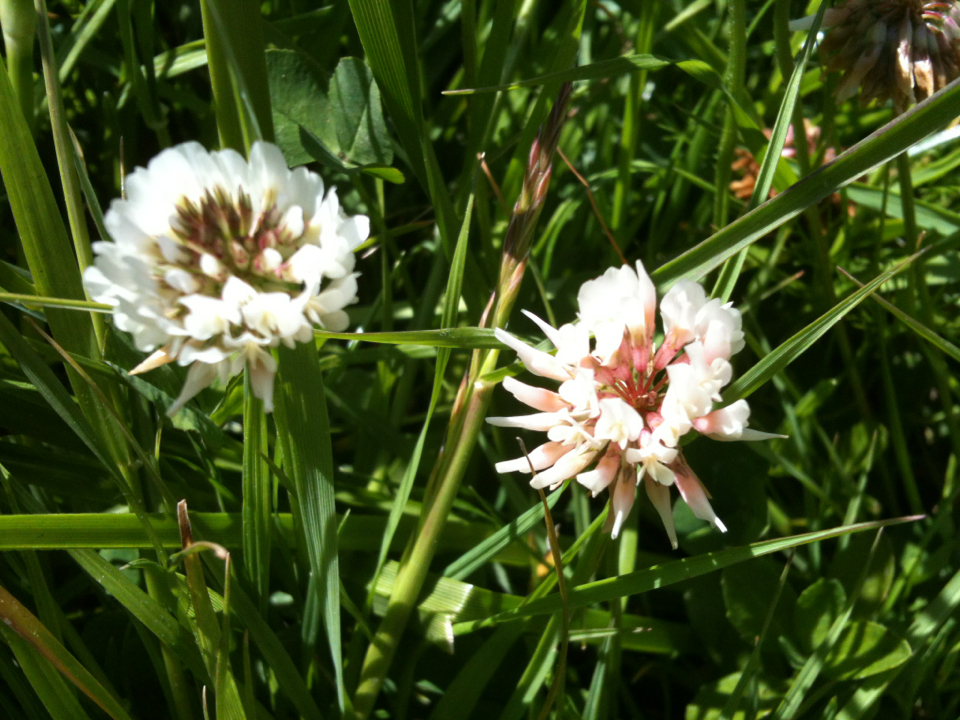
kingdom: Plantae
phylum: Tracheophyta
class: Magnoliopsida
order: Fabales
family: Fabaceae
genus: Trifolium
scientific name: Trifolium repens
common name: White clover
